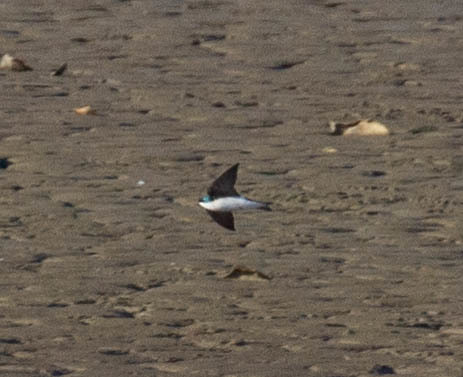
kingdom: Animalia
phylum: Chordata
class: Aves
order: Passeriformes
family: Hirundinidae
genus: Tachycineta
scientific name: Tachycineta bicolor
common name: Tree swallow
